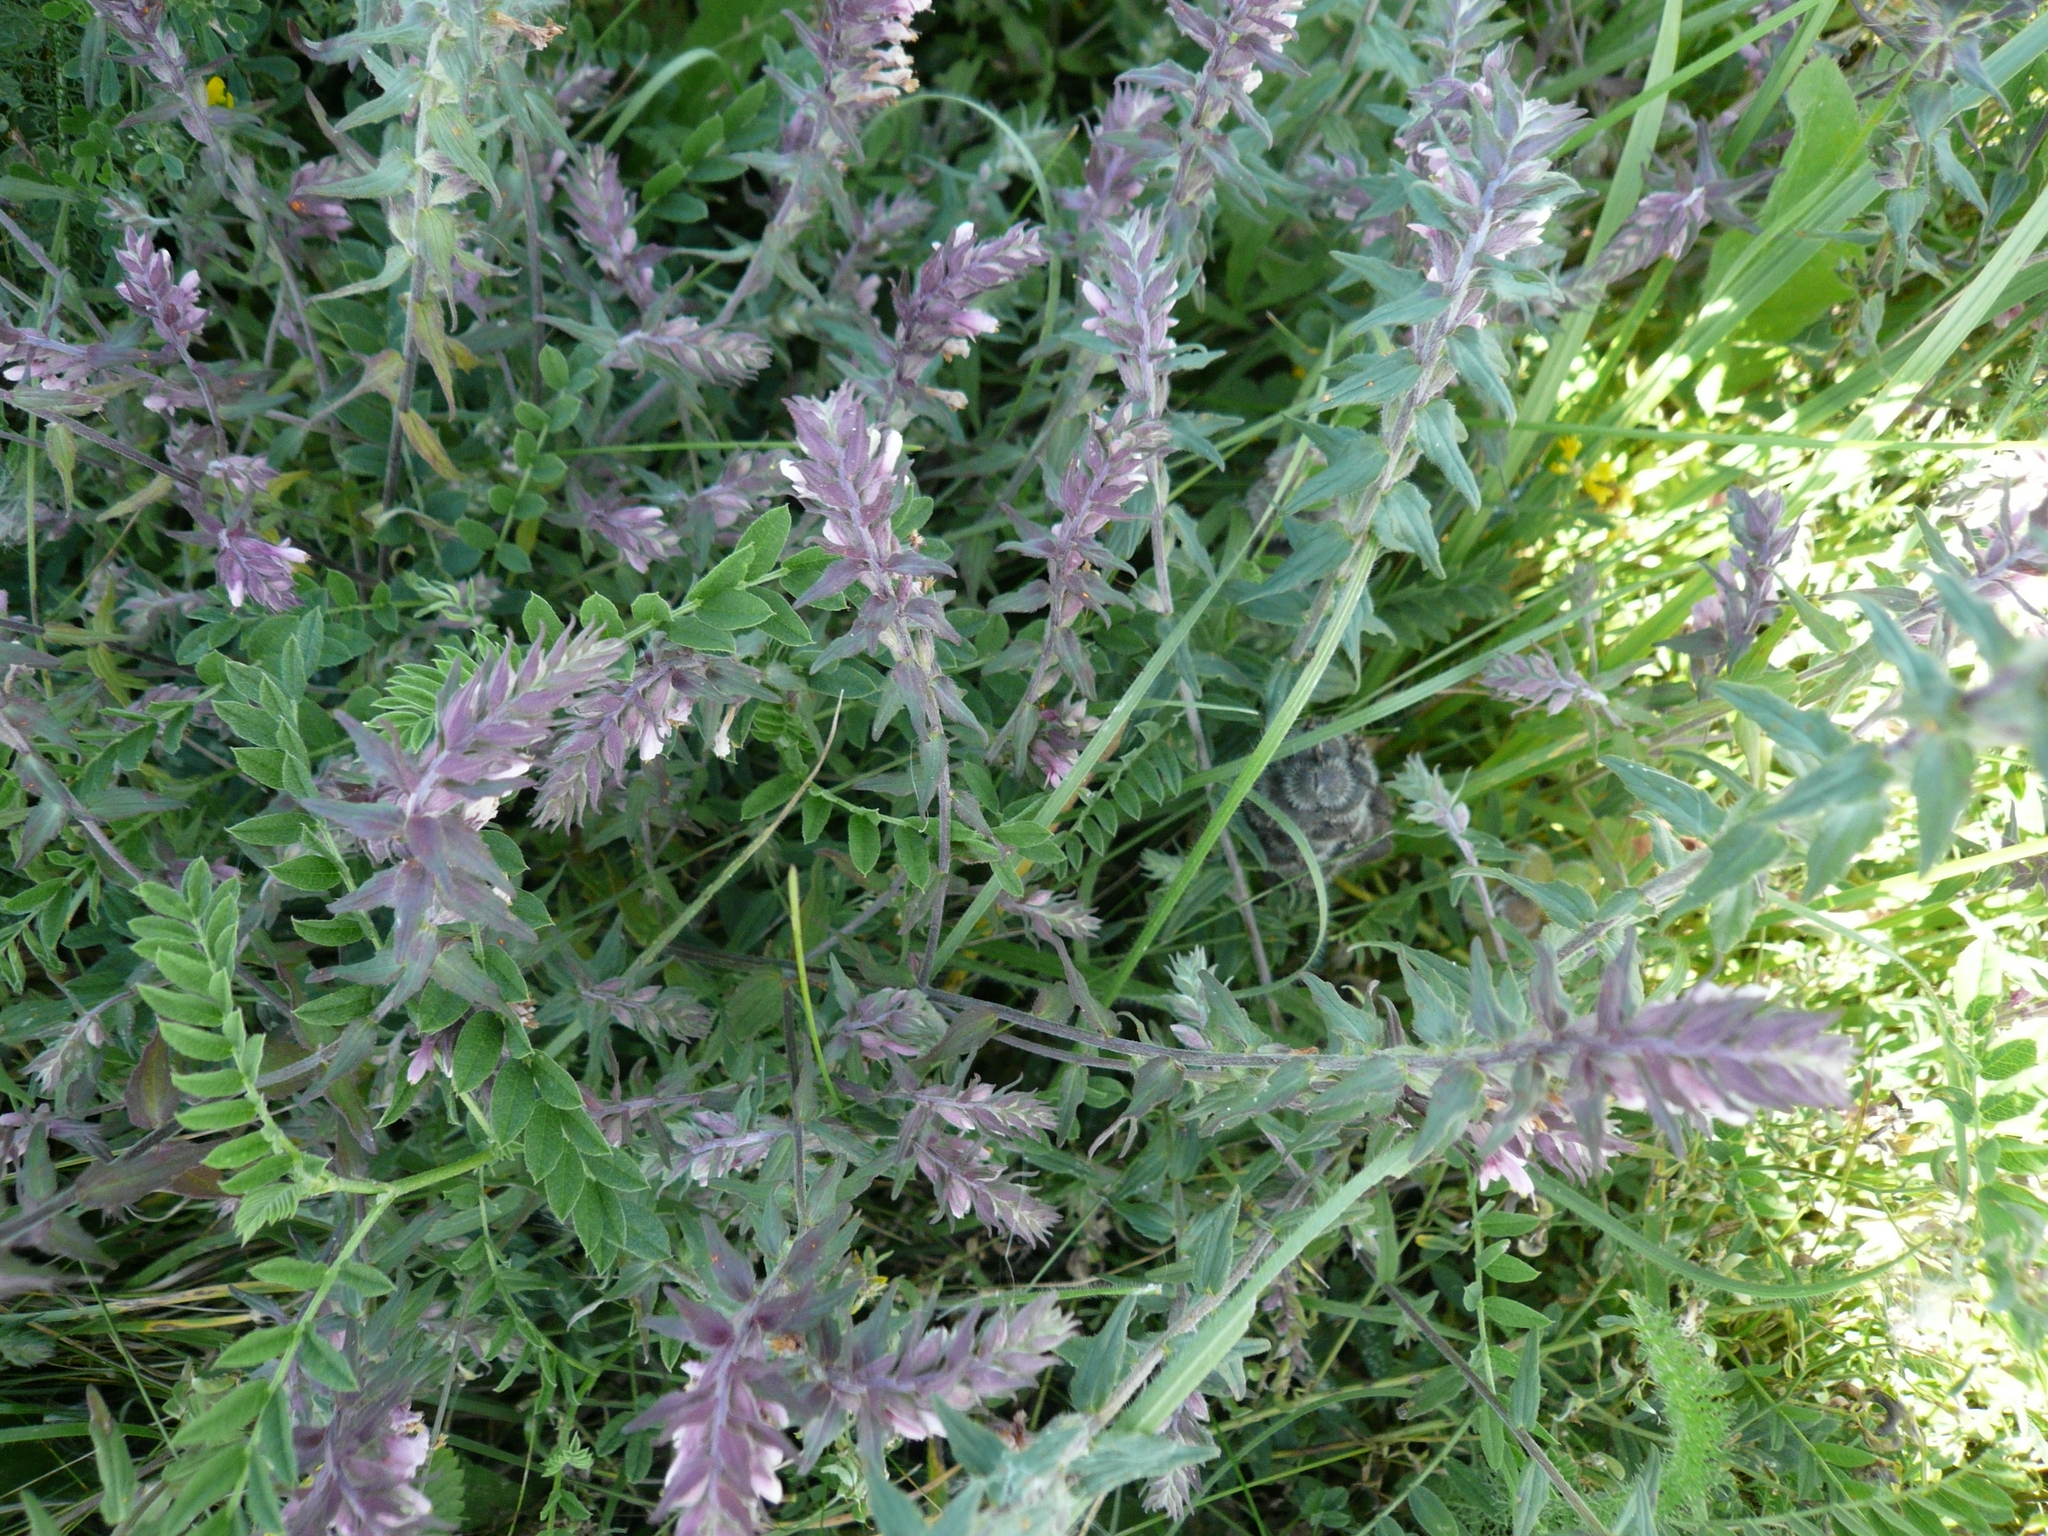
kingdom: Plantae
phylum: Tracheophyta
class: Magnoliopsida
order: Lamiales
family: Orobanchaceae
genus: Odontites
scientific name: Odontites vulgaris
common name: Broomrape
